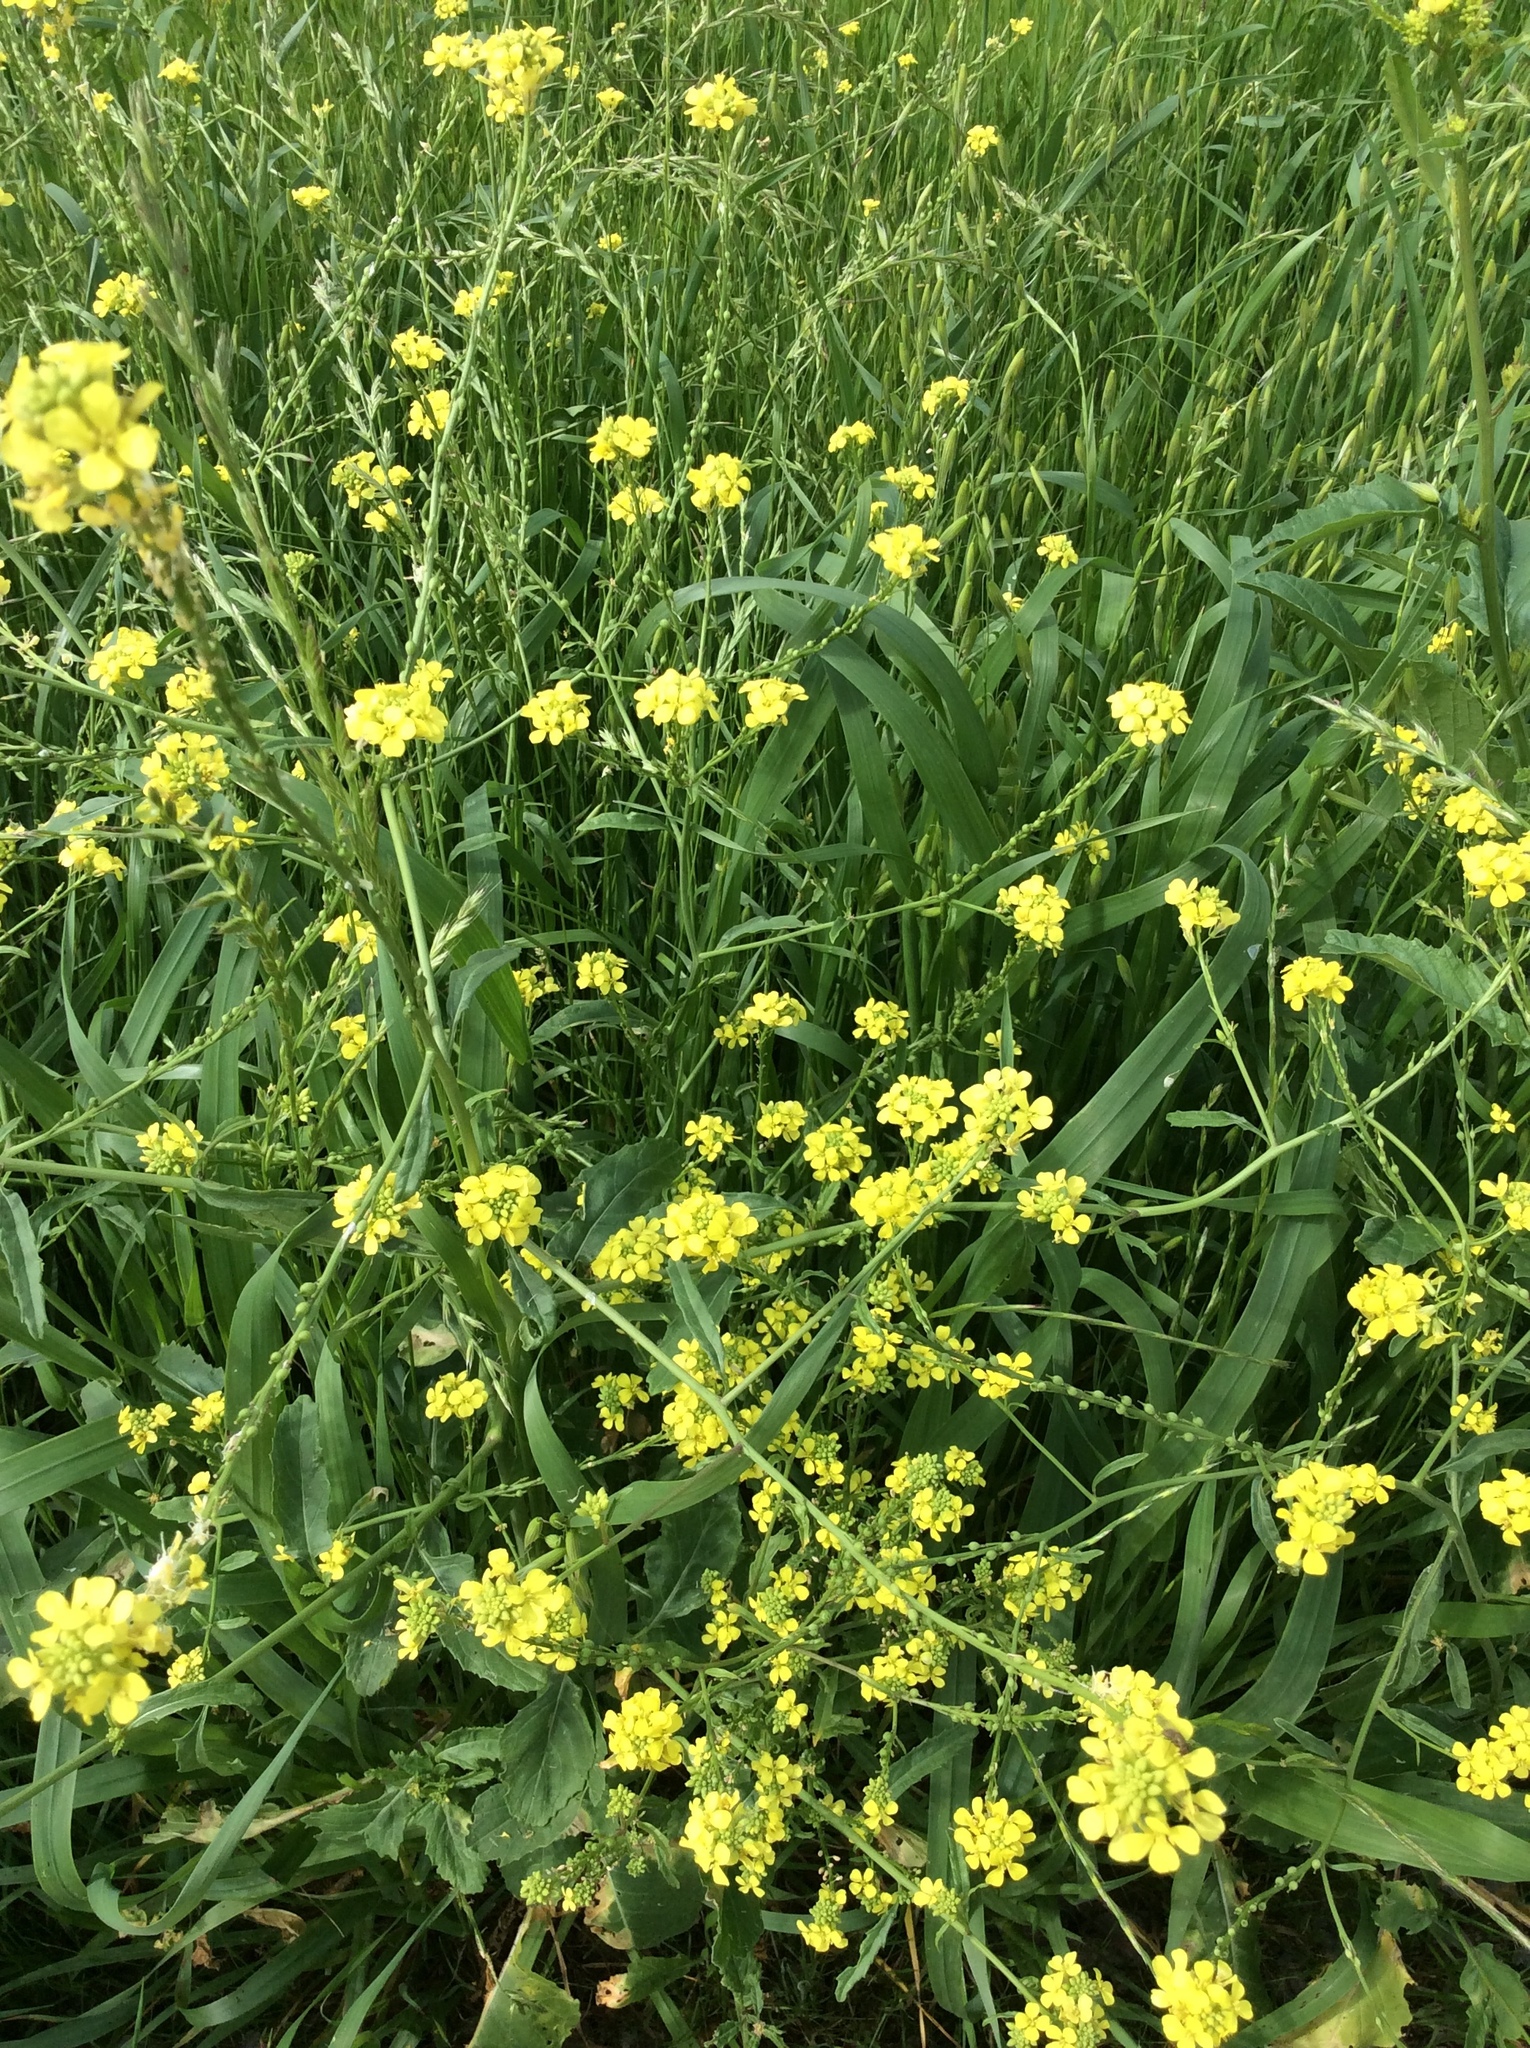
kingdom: Plantae
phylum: Tracheophyta
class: Magnoliopsida
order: Brassicales
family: Brassicaceae
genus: Rapistrum
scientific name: Rapistrum rugosum
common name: Annual bastardcabbage
